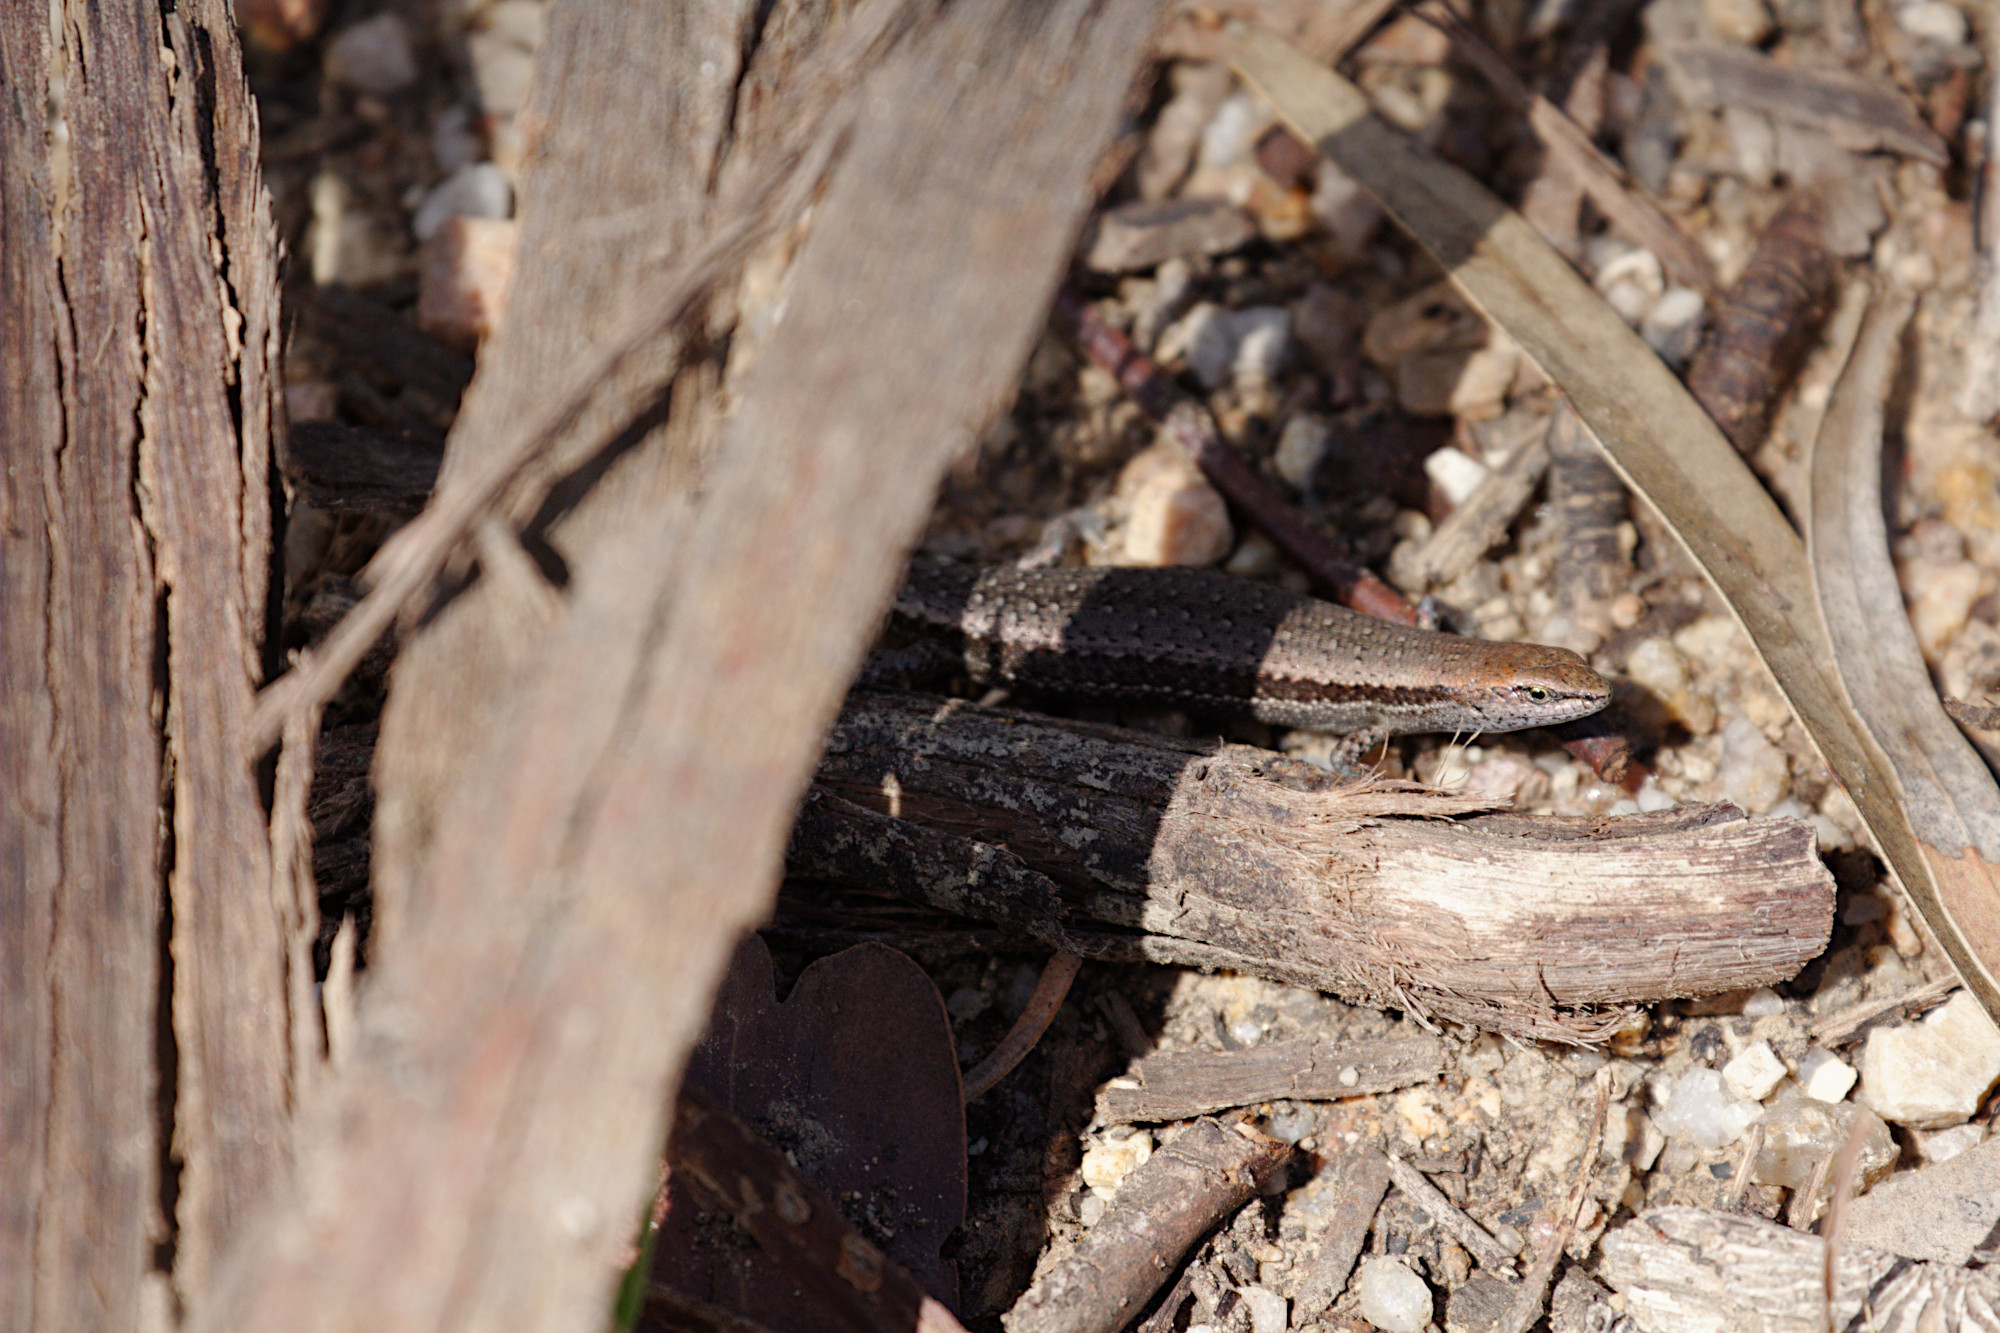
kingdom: Animalia
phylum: Chordata
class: Squamata
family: Scincidae
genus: Lampropholis
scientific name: Lampropholis guichenoti
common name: Garden skink
